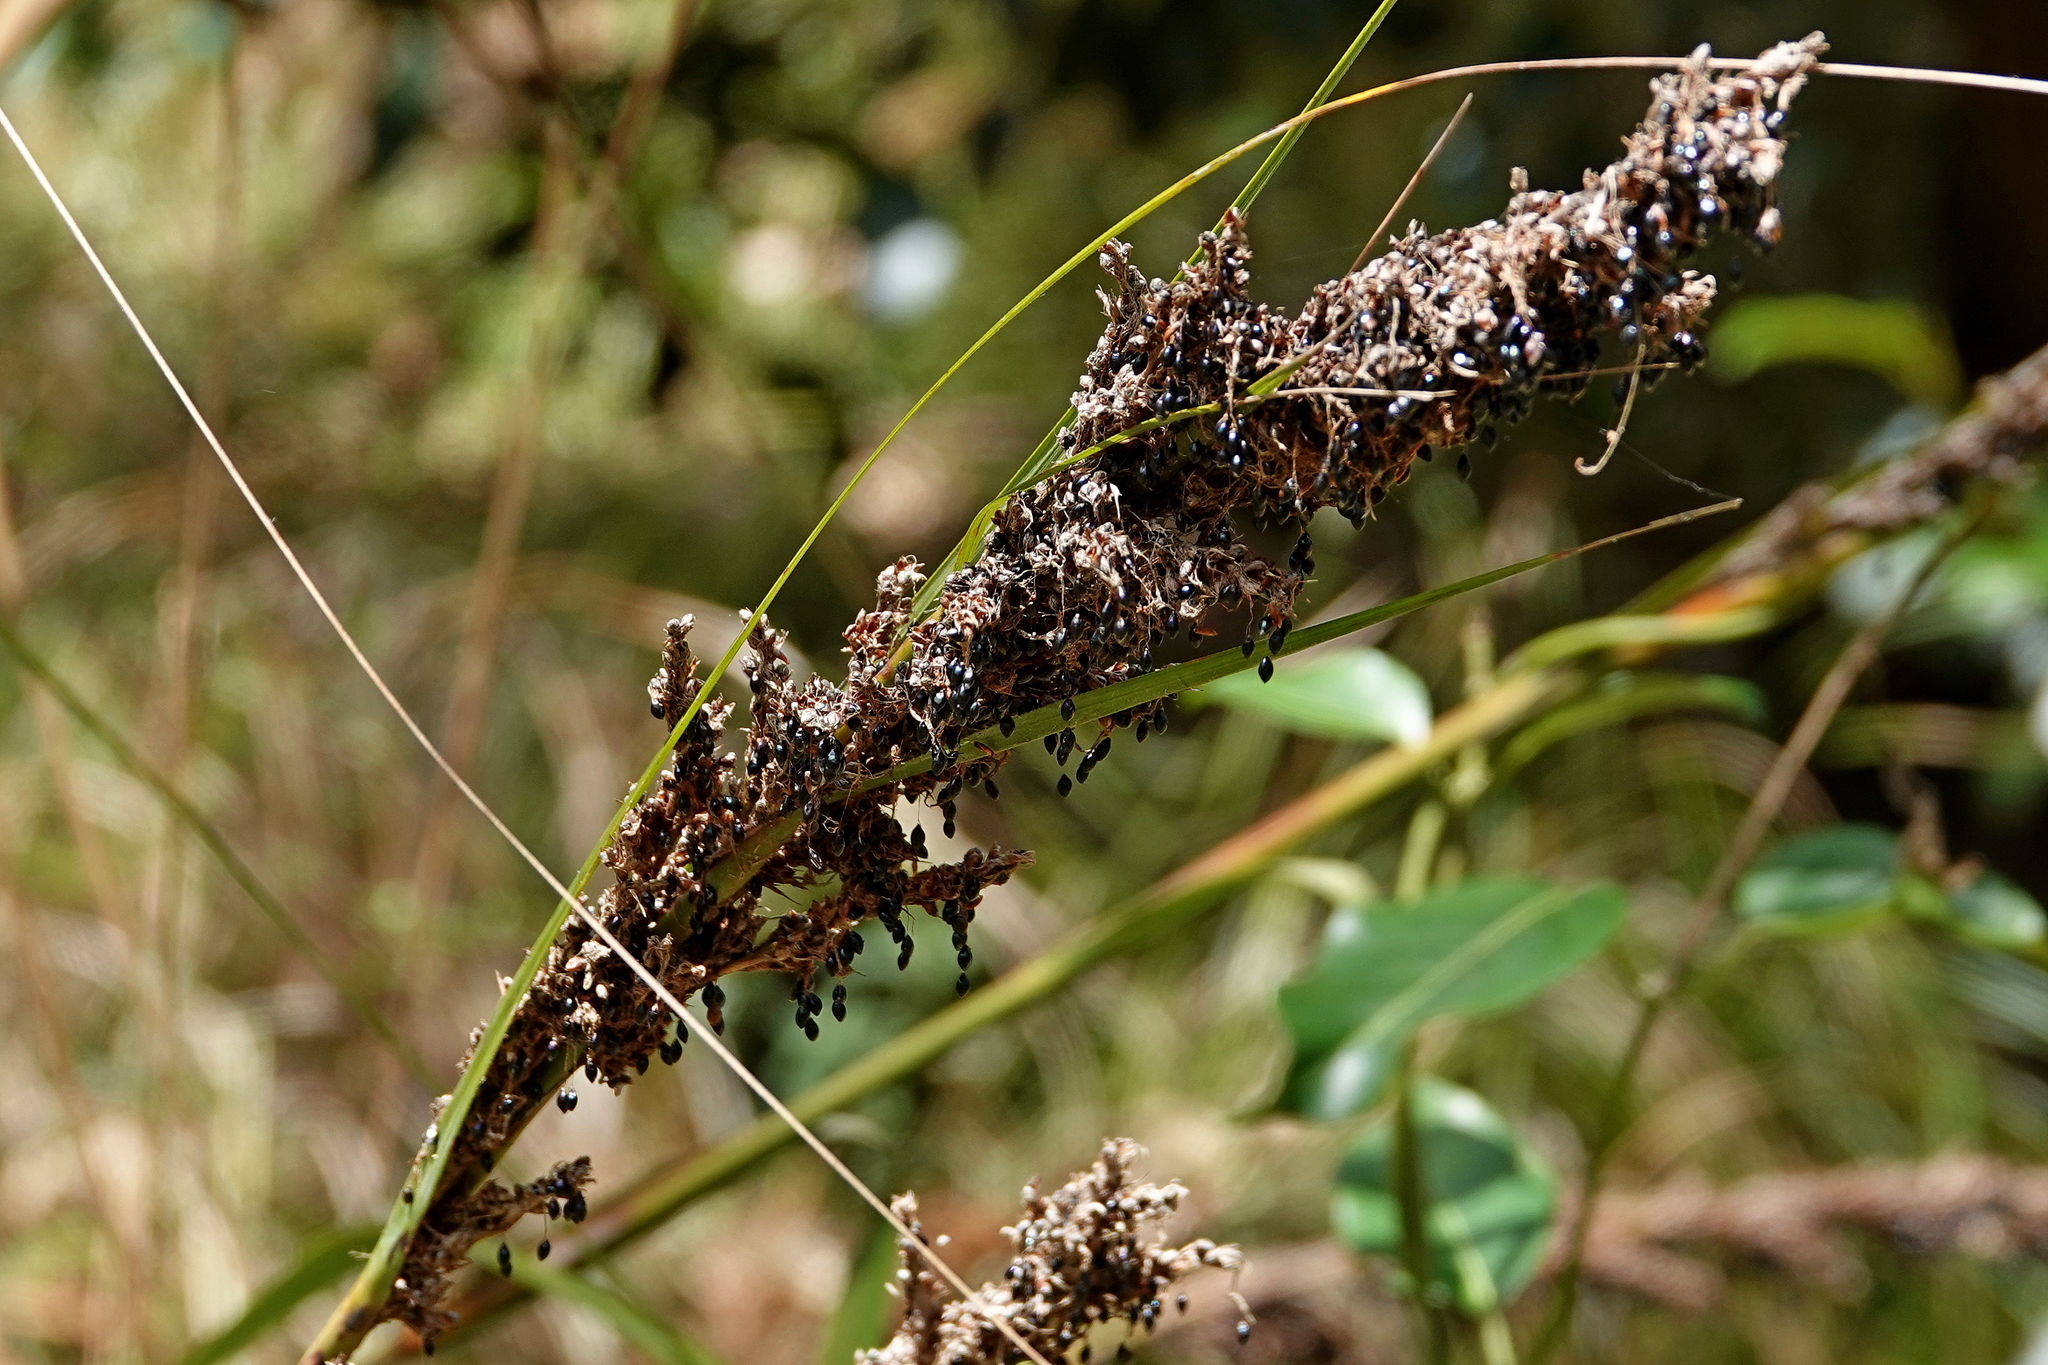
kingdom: Plantae
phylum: Tracheophyta
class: Liliopsida
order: Poales
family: Cyperaceae
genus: Gahnia
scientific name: Gahnia melanocarpa
